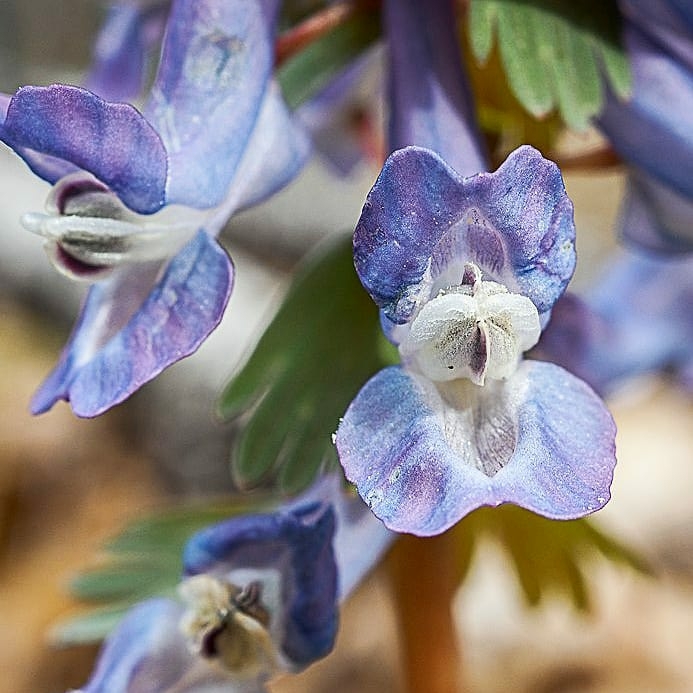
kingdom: Plantae
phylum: Tracheophyta
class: Magnoliopsida
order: Ranunculales
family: Papaveraceae
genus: Corydalis
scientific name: Corydalis solida
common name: Bird-in-a-bush
